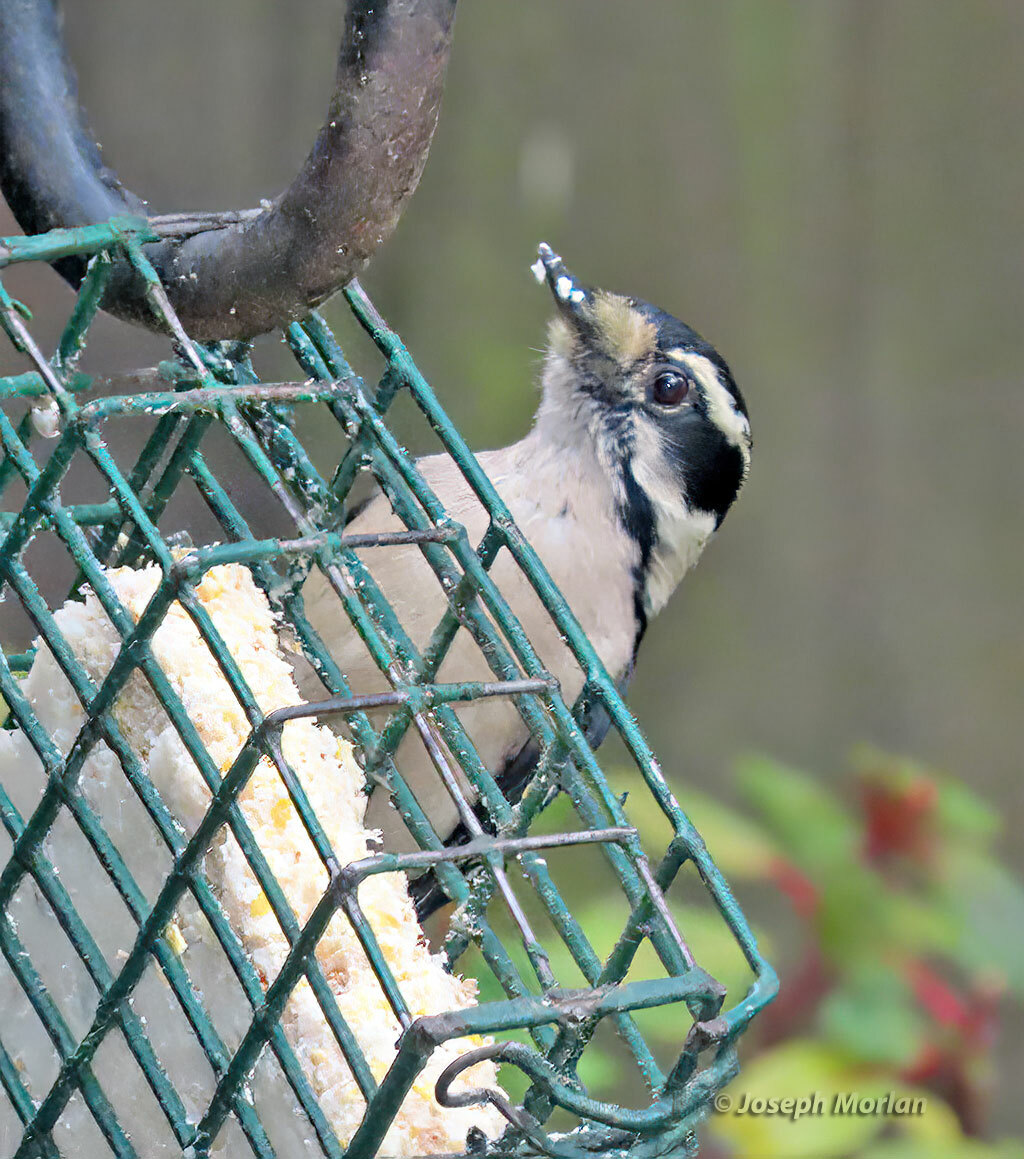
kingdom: Animalia
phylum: Chordata
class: Aves
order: Piciformes
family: Picidae
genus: Dryobates
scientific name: Dryobates pubescens
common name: Downy woodpecker
